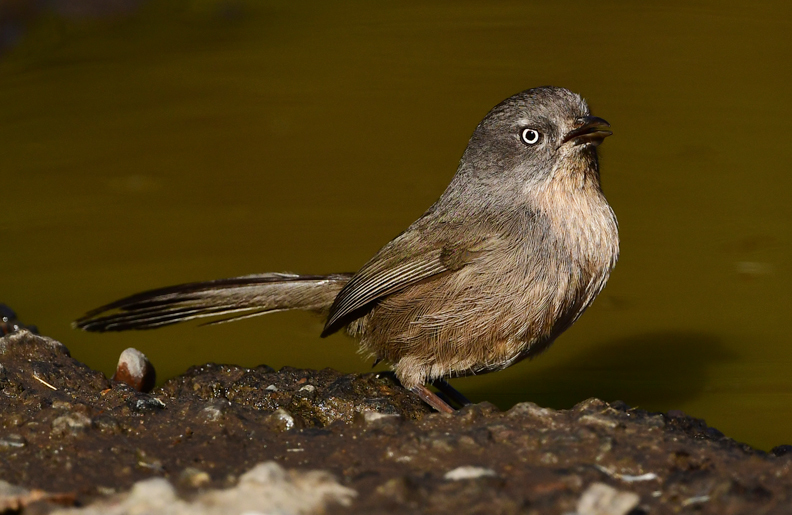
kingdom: Animalia
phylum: Chordata
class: Aves
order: Passeriformes
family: Sylviidae
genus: Chamaea
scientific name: Chamaea fasciata
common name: Wrentit
